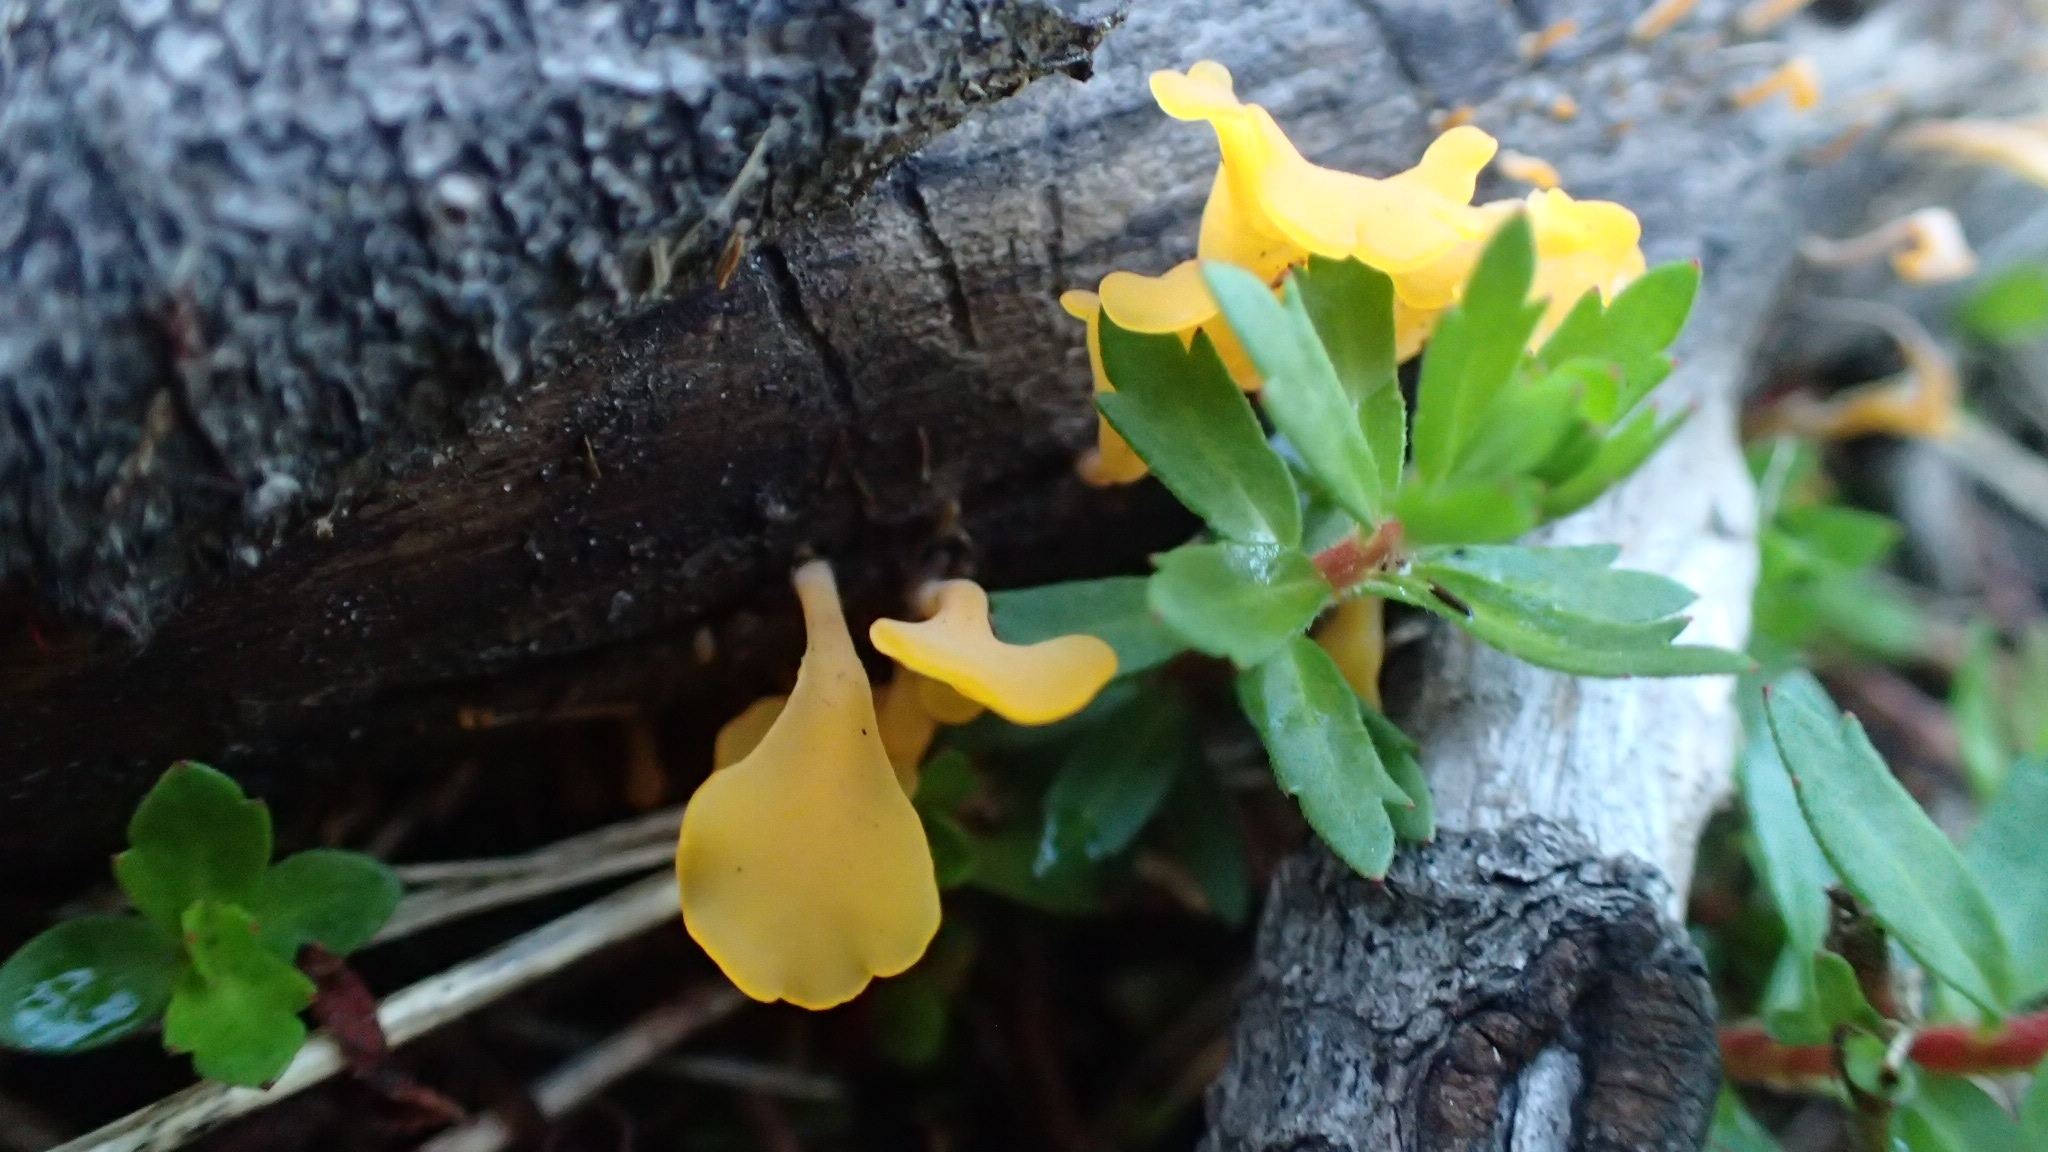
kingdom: Fungi
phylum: Basidiomycota
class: Dacrymycetes
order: Dacrymycetales
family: Dacrymycetaceae
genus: Dacrymyces
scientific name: Dacrymyces spathularius
